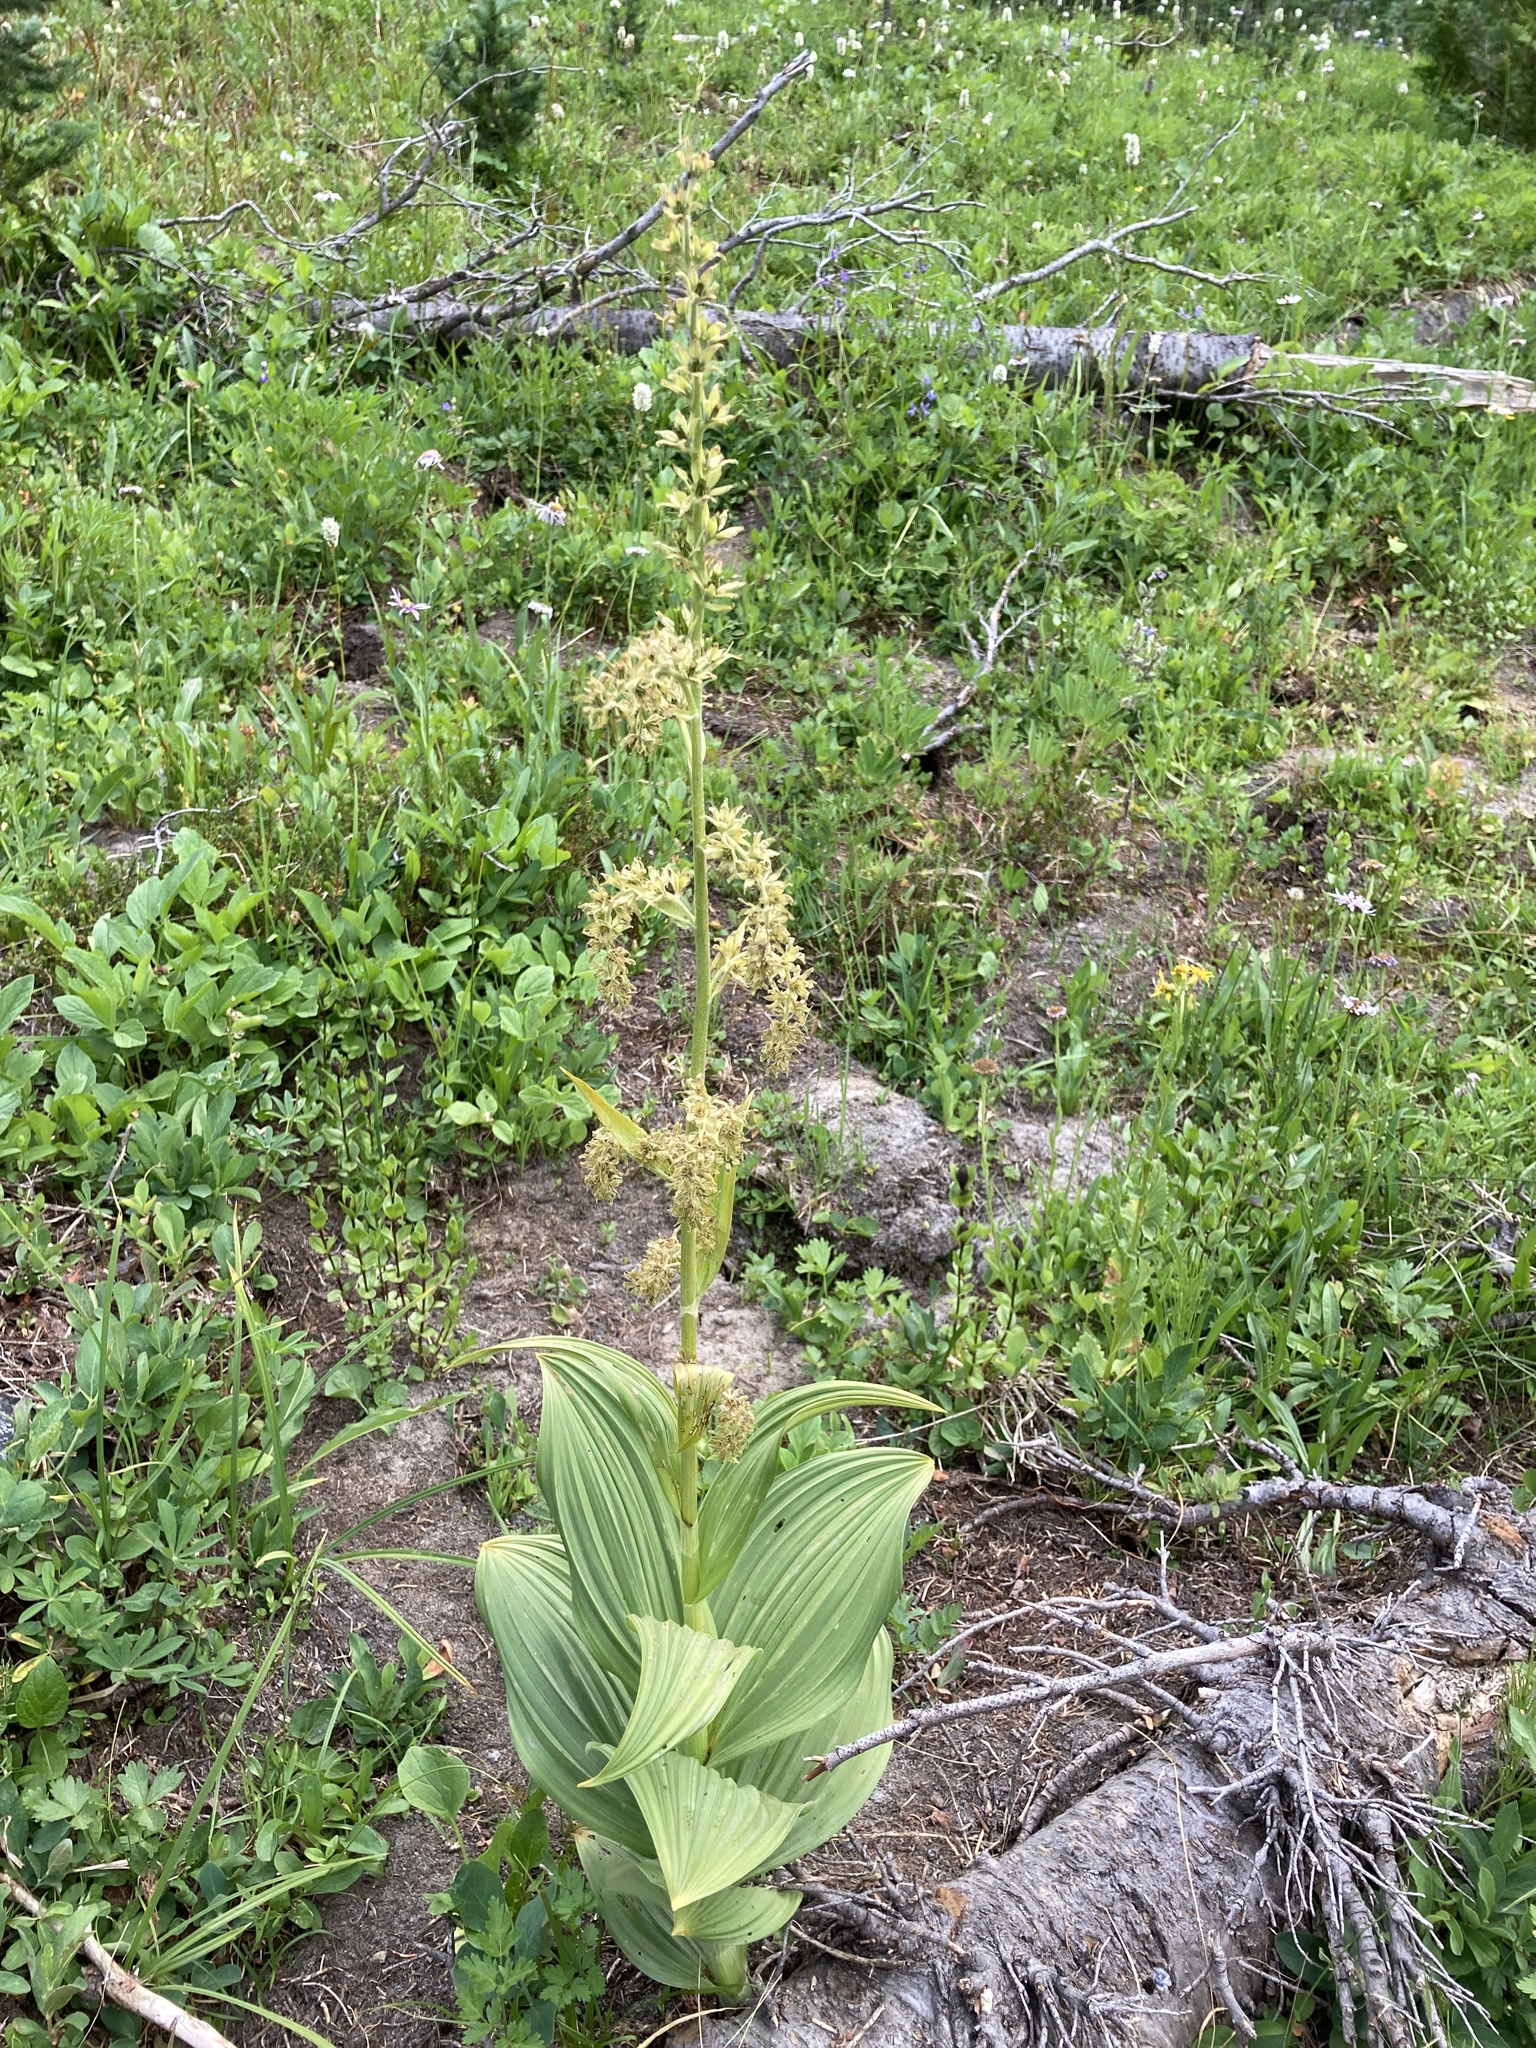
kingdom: Plantae
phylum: Tracheophyta
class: Liliopsida
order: Liliales
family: Melanthiaceae
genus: Veratrum
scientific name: Veratrum viride
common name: American false hellebore
